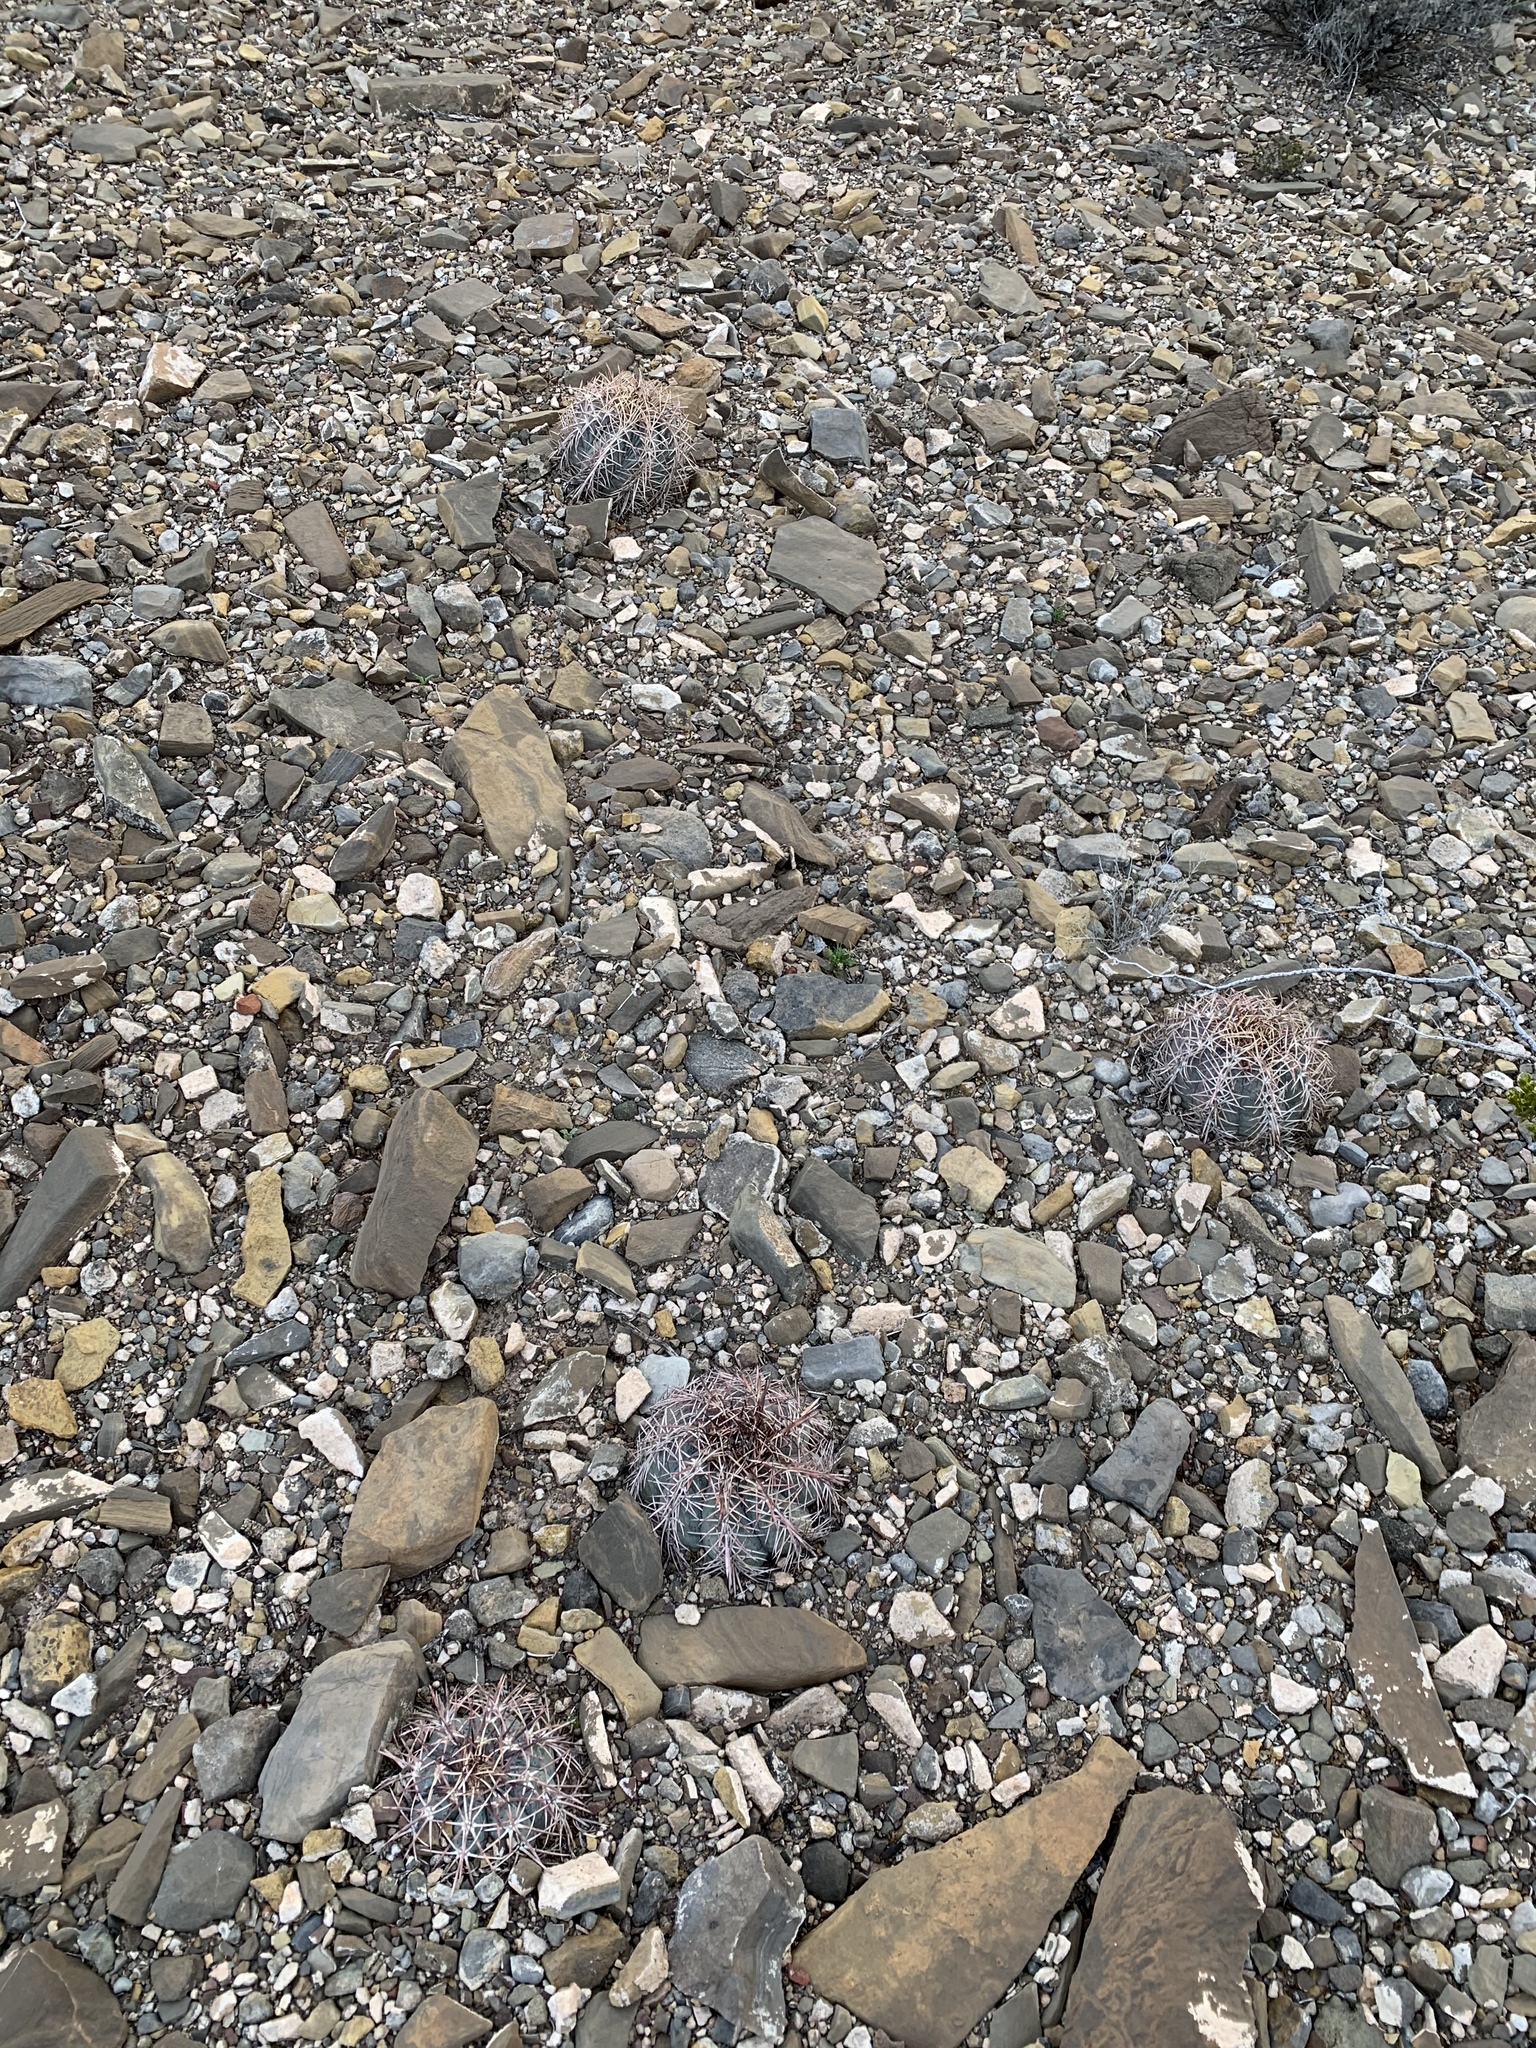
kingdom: Plantae
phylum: Tracheophyta
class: Magnoliopsida
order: Caryophyllales
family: Cactaceae
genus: Echinocactus
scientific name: Echinocactus horizonthalonius
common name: Devilshead
